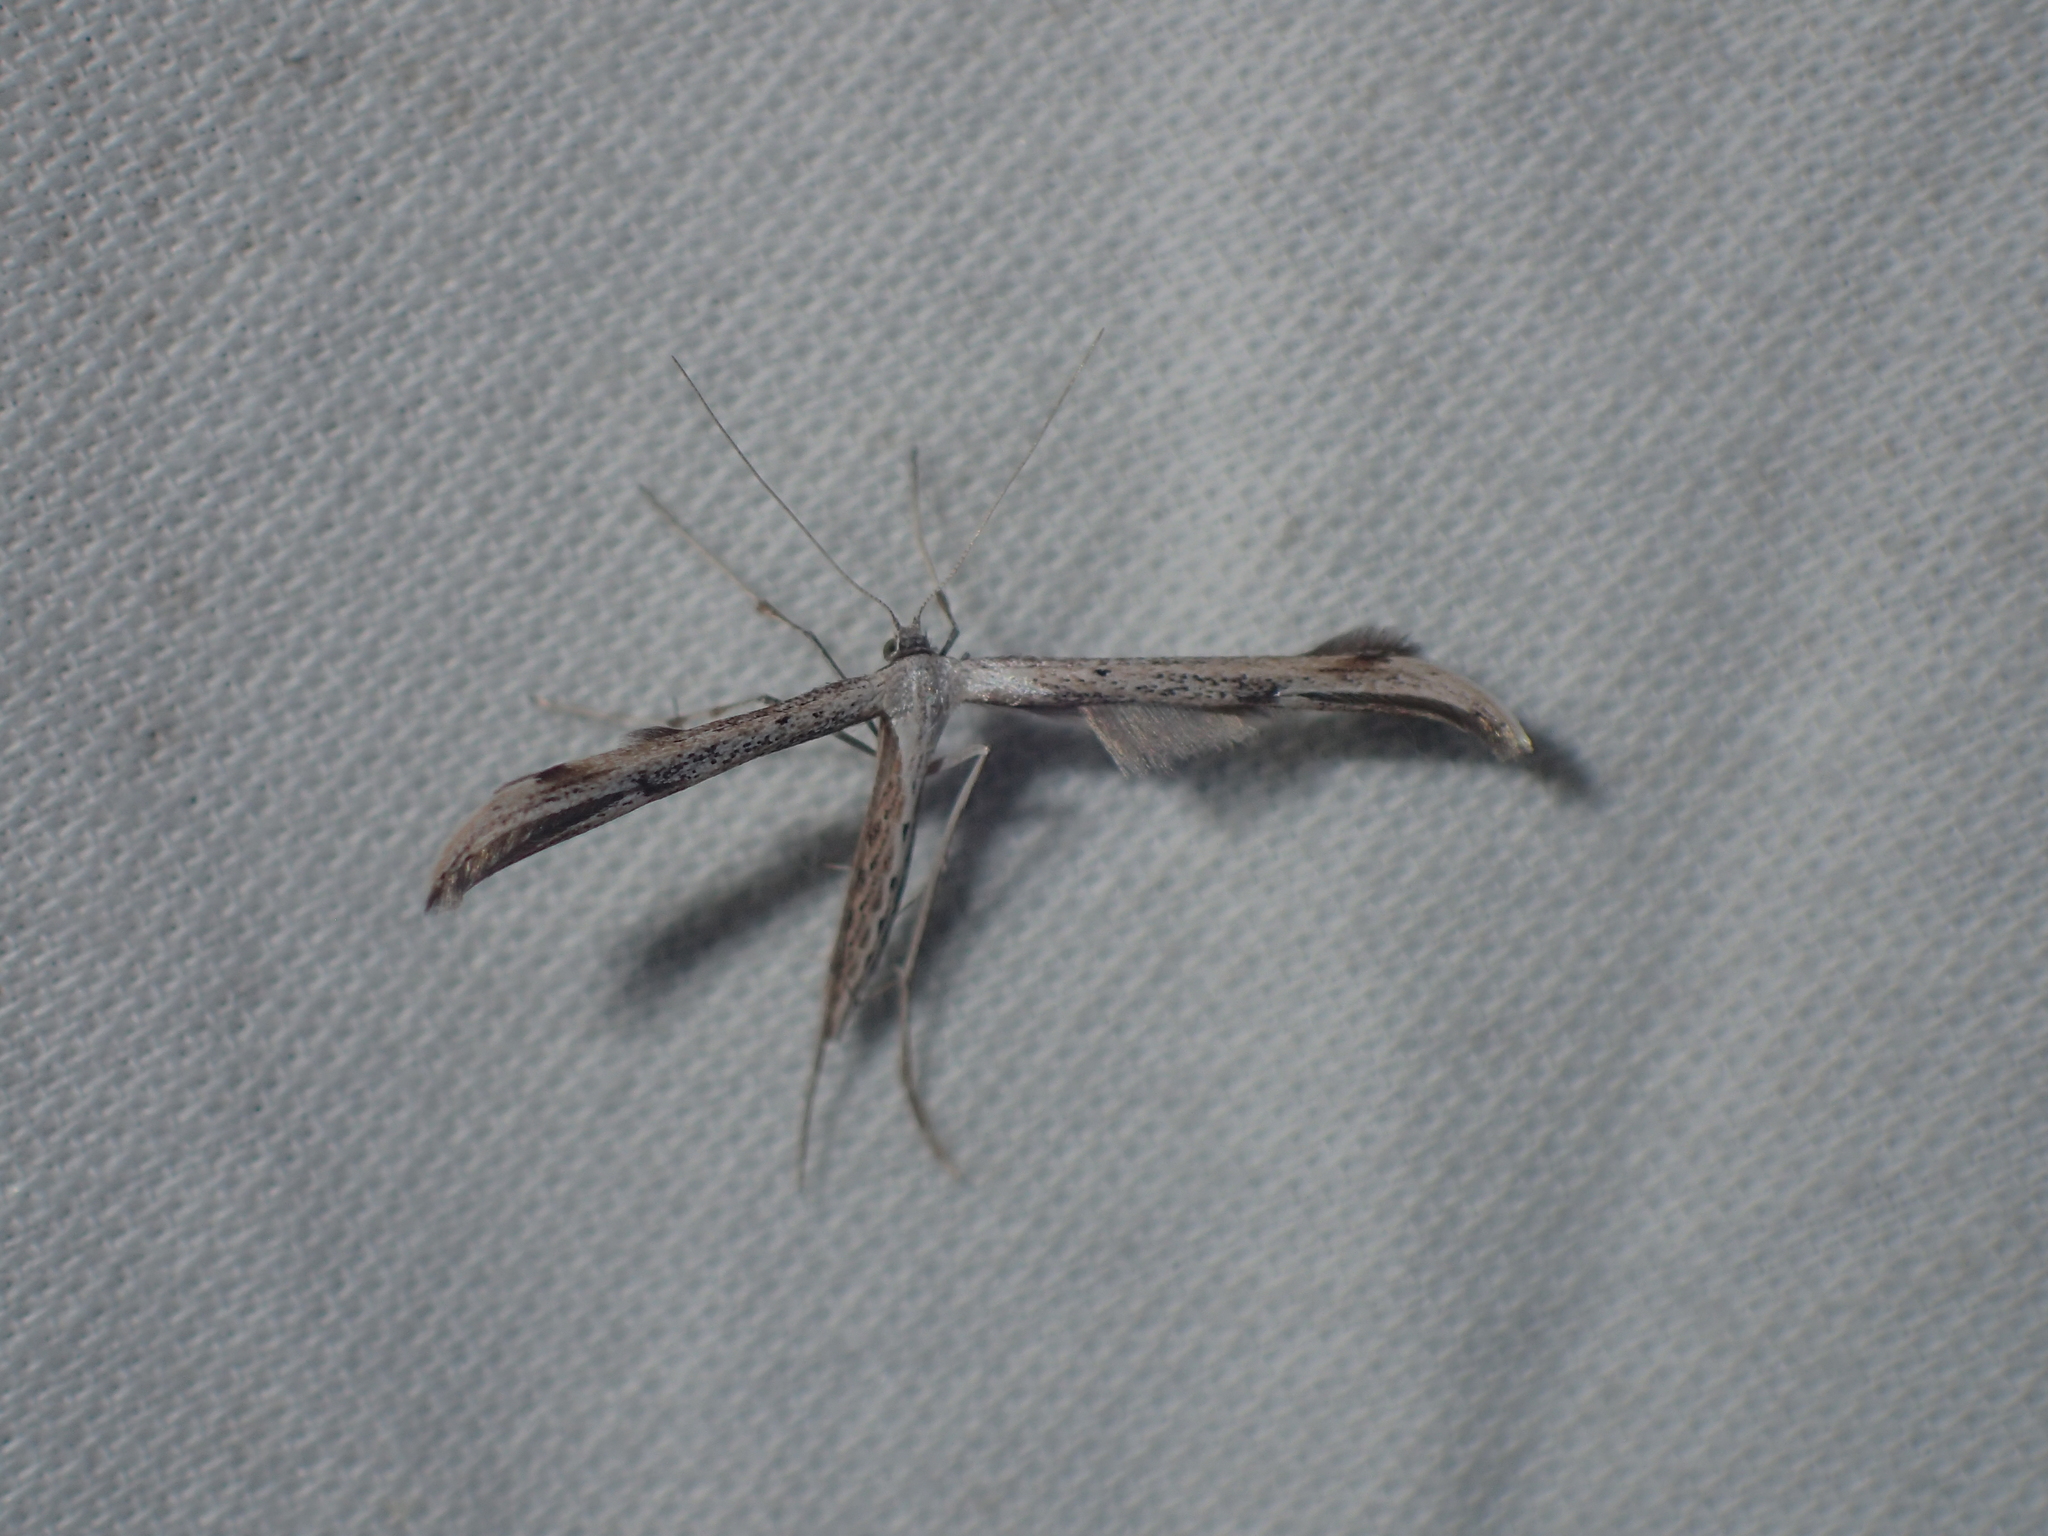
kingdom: Animalia
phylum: Arthropoda
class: Insecta
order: Lepidoptera
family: Pterophoridae
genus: Emmelina
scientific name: Emmelina monodactyla
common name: Common plume
